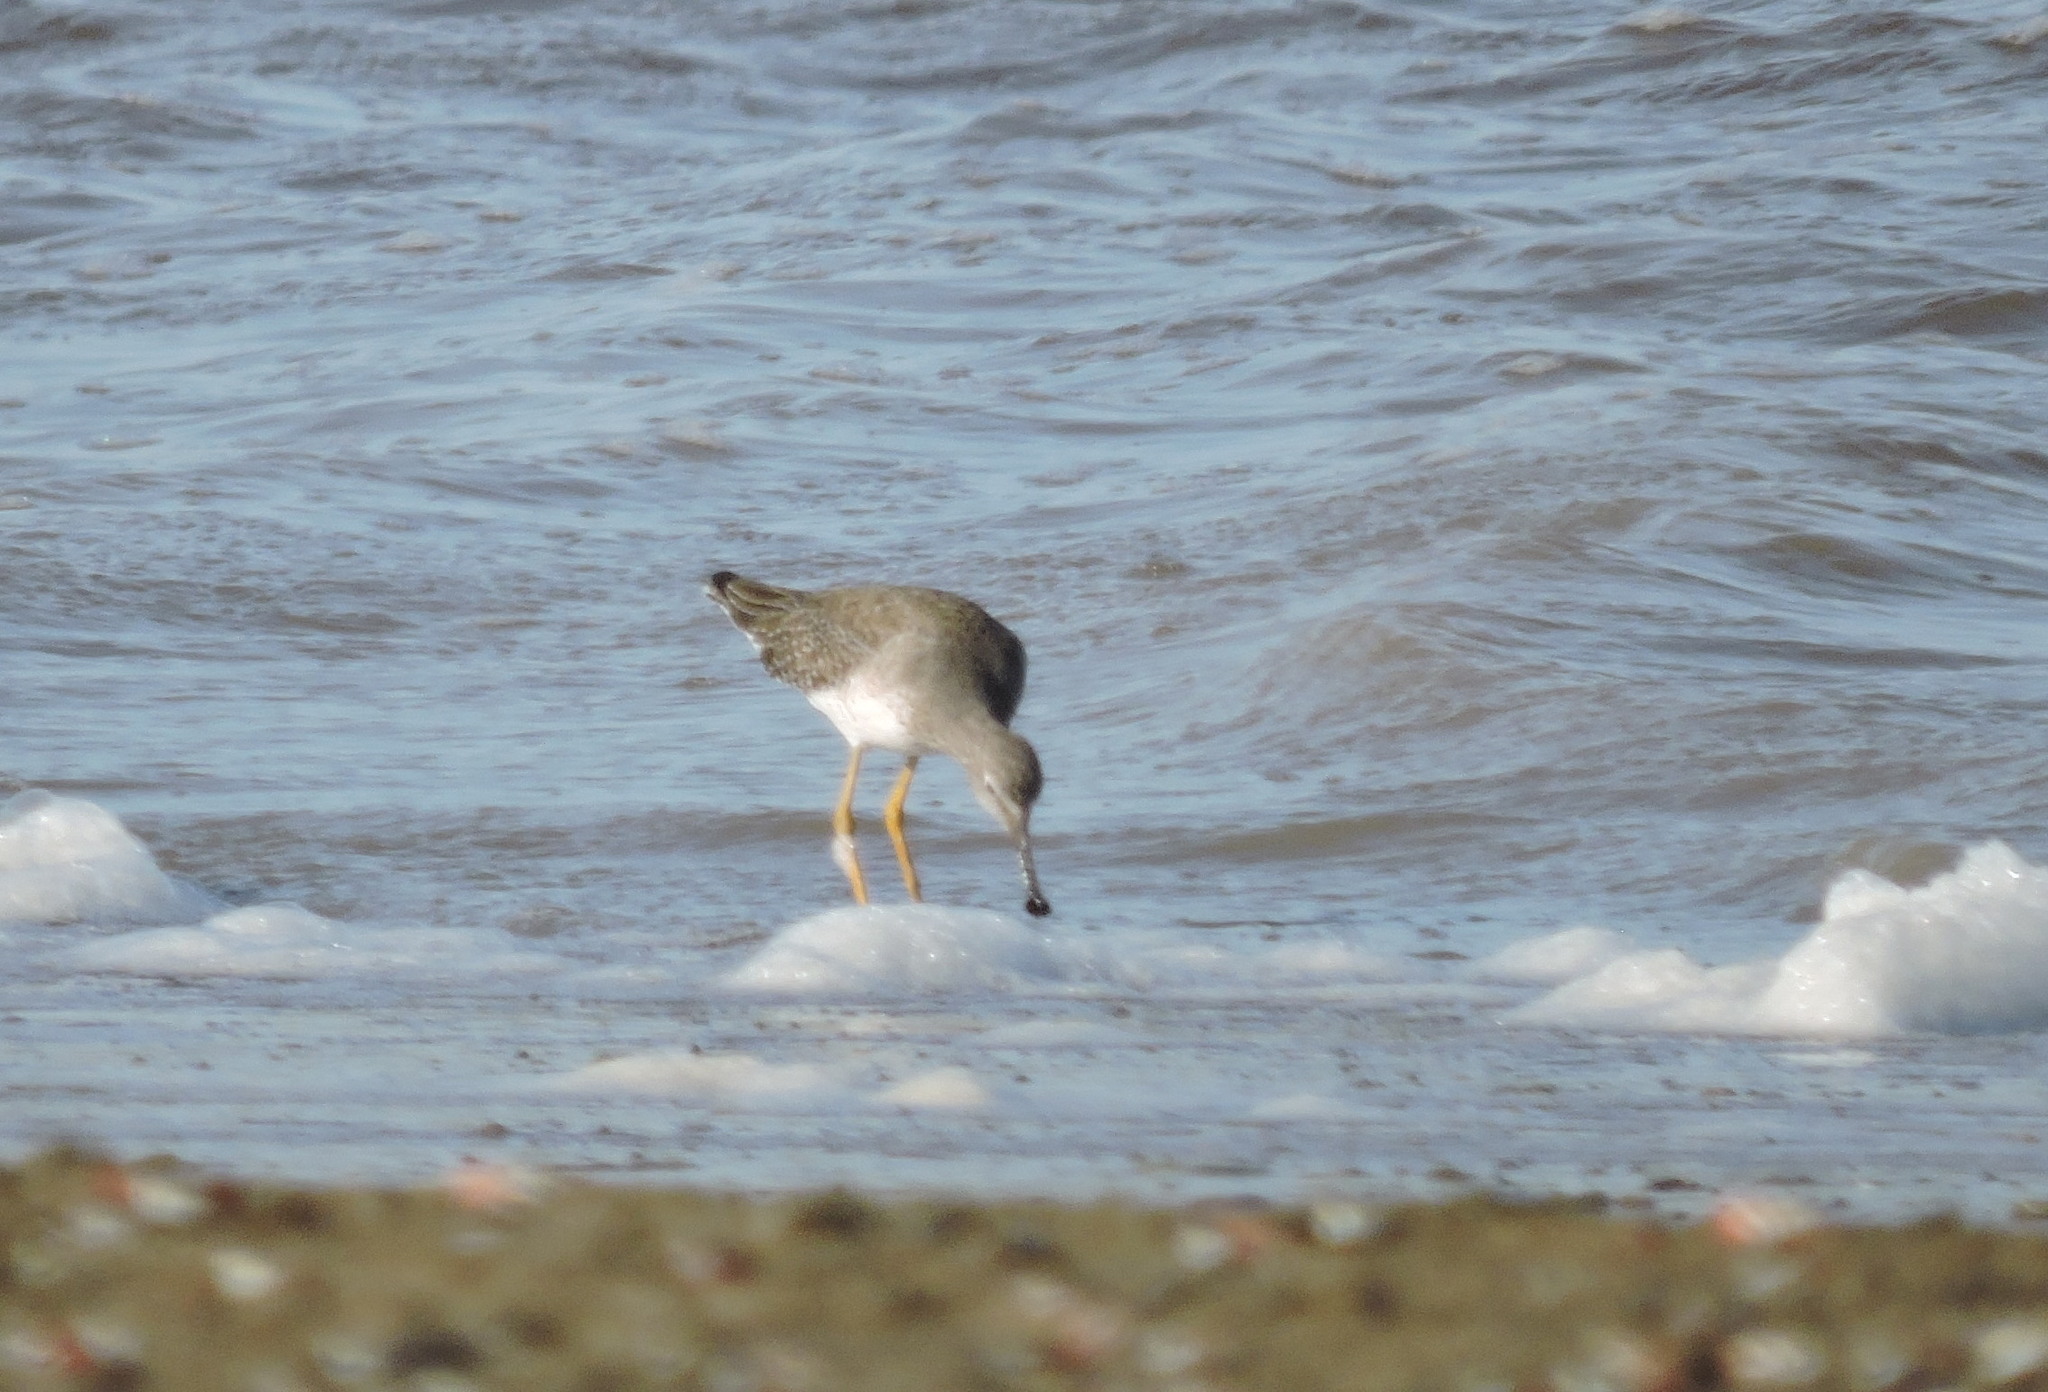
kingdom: Animalia
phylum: Chordata
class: Aves
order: Charadriiformes
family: Scolopacidae
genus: Tringa
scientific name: Tringa flavipes
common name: Lesser yellowlegs
